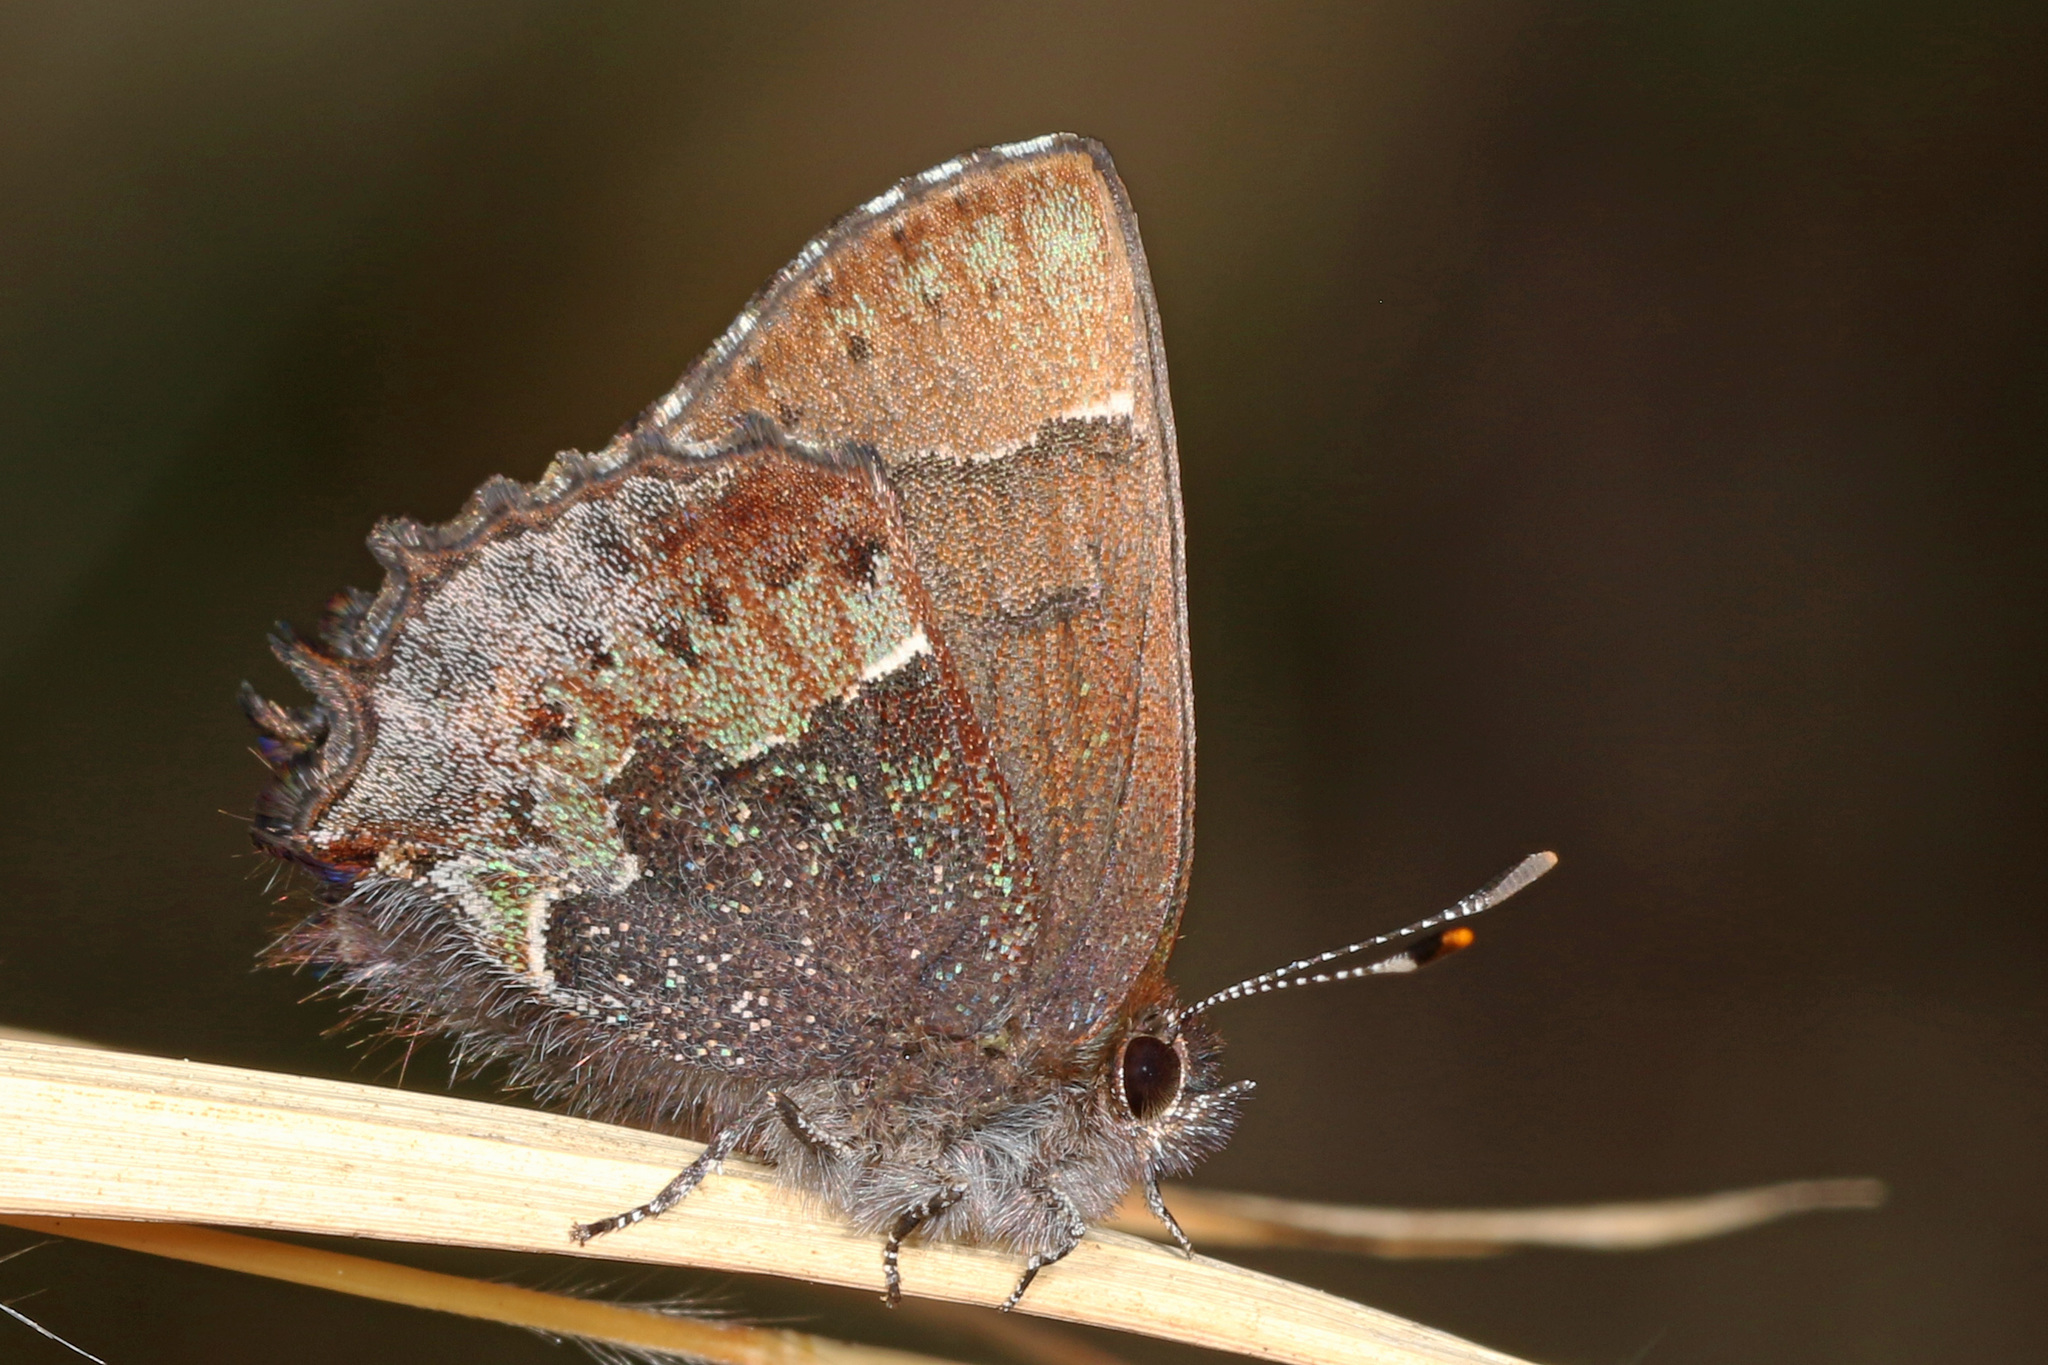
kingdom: Animalia
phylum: Arthropoda
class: Insecta
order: Lepidoptera
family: Lycaenidae
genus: Incisalia
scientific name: Incisalia henrici
